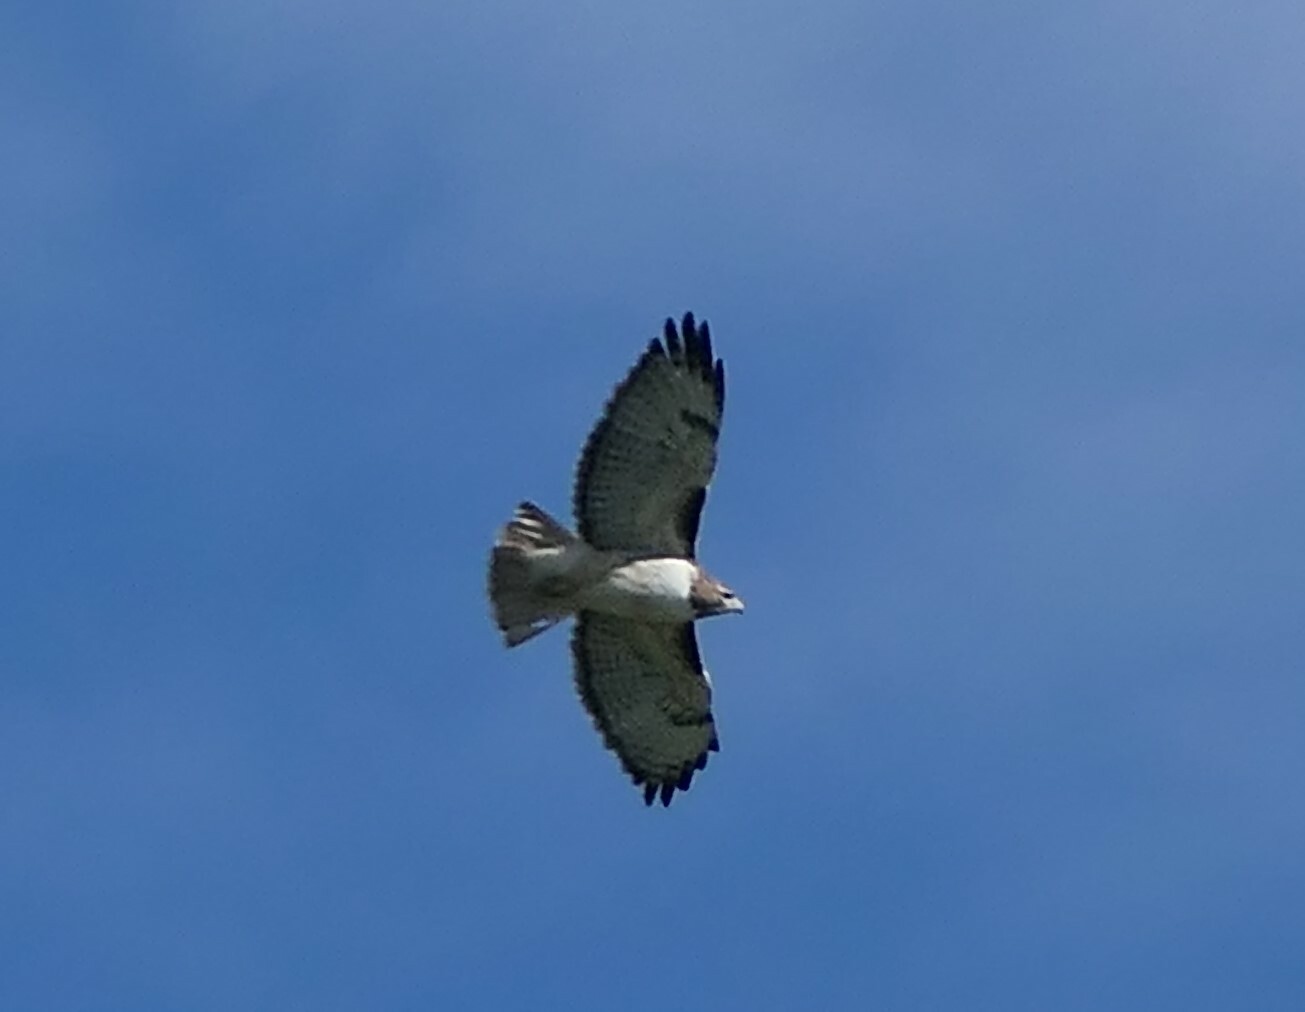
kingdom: Animalia
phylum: Chordata
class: Aves
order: Accipitriformes
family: Accipitridae
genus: Buteo
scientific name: Buteo jamaicensis
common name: Red-tailed hawk
